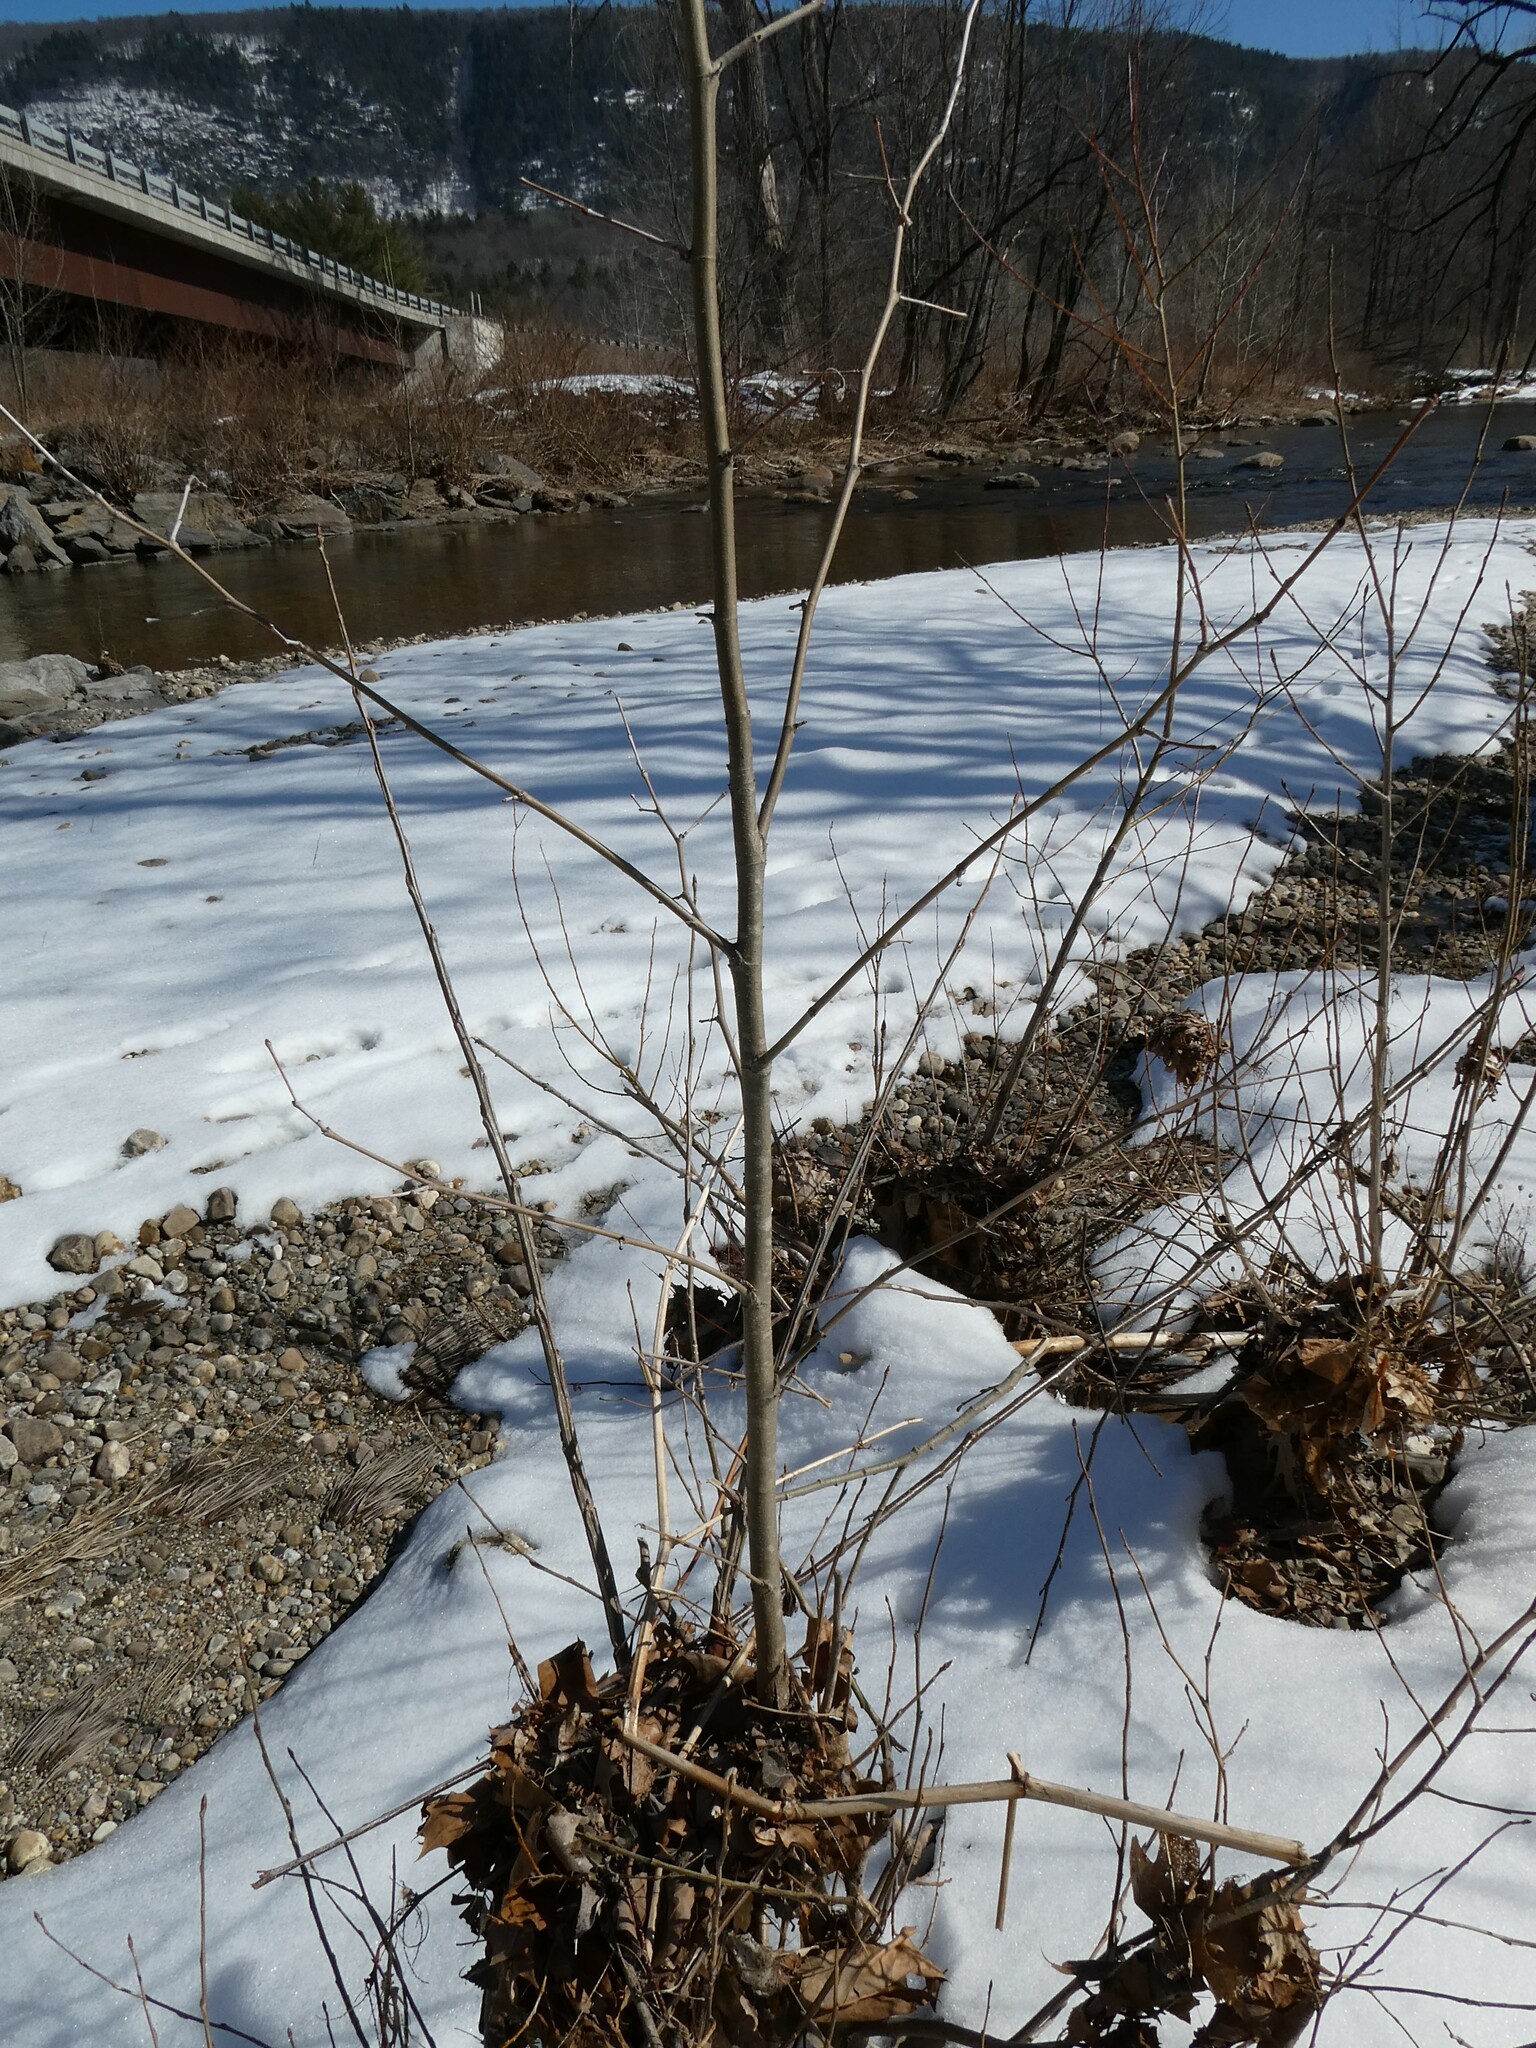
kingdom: Plantae
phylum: Tracheophyta
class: Magnoliopsida
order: Proteales
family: Platanaceae
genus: Platanus
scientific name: Platanus occidentalis
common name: American sycamore
